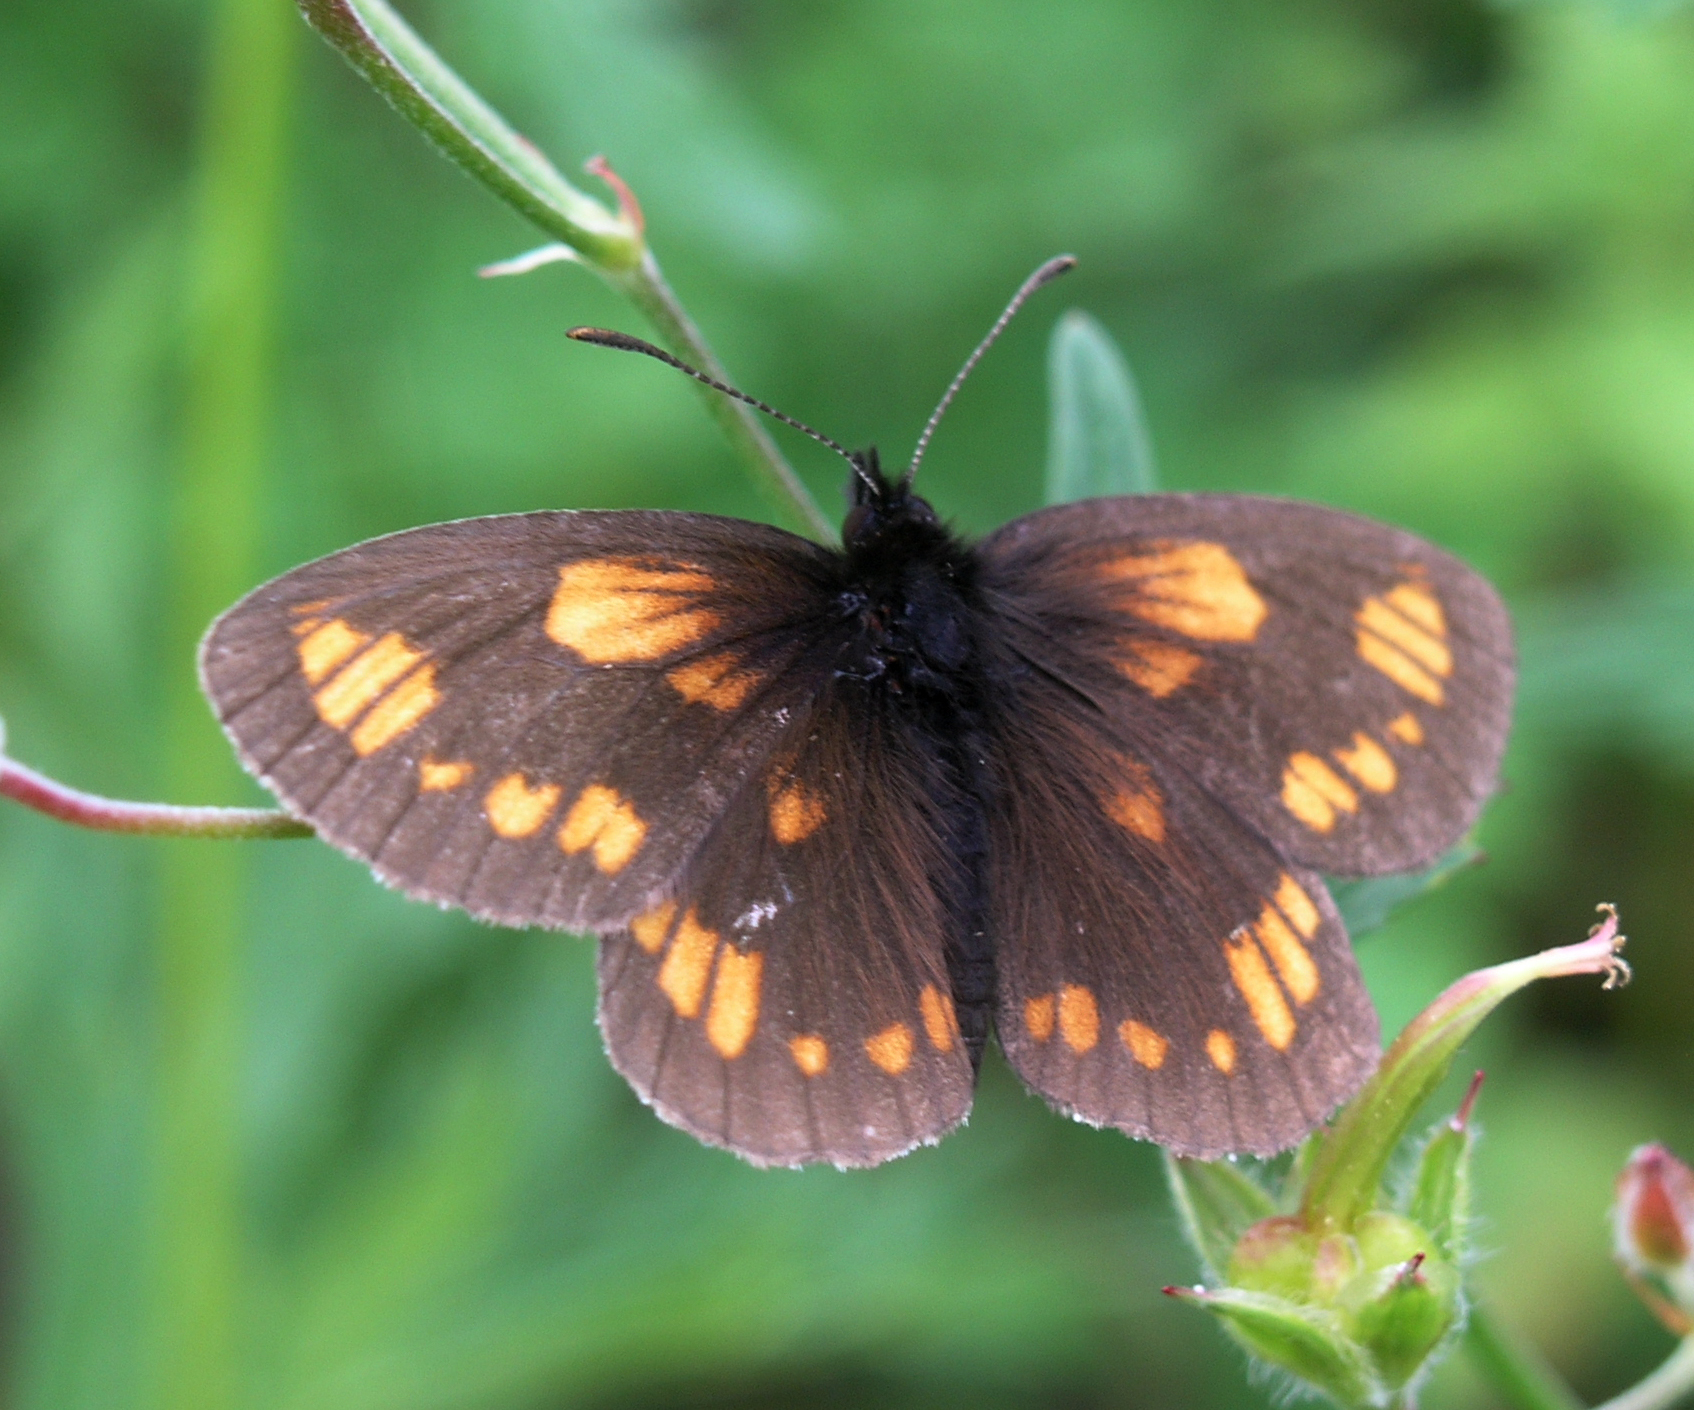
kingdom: Animalia
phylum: Arthropoda
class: Insecta
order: Lepidoptera
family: Nymphalidae
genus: Erebia
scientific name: Erebia maurisius
